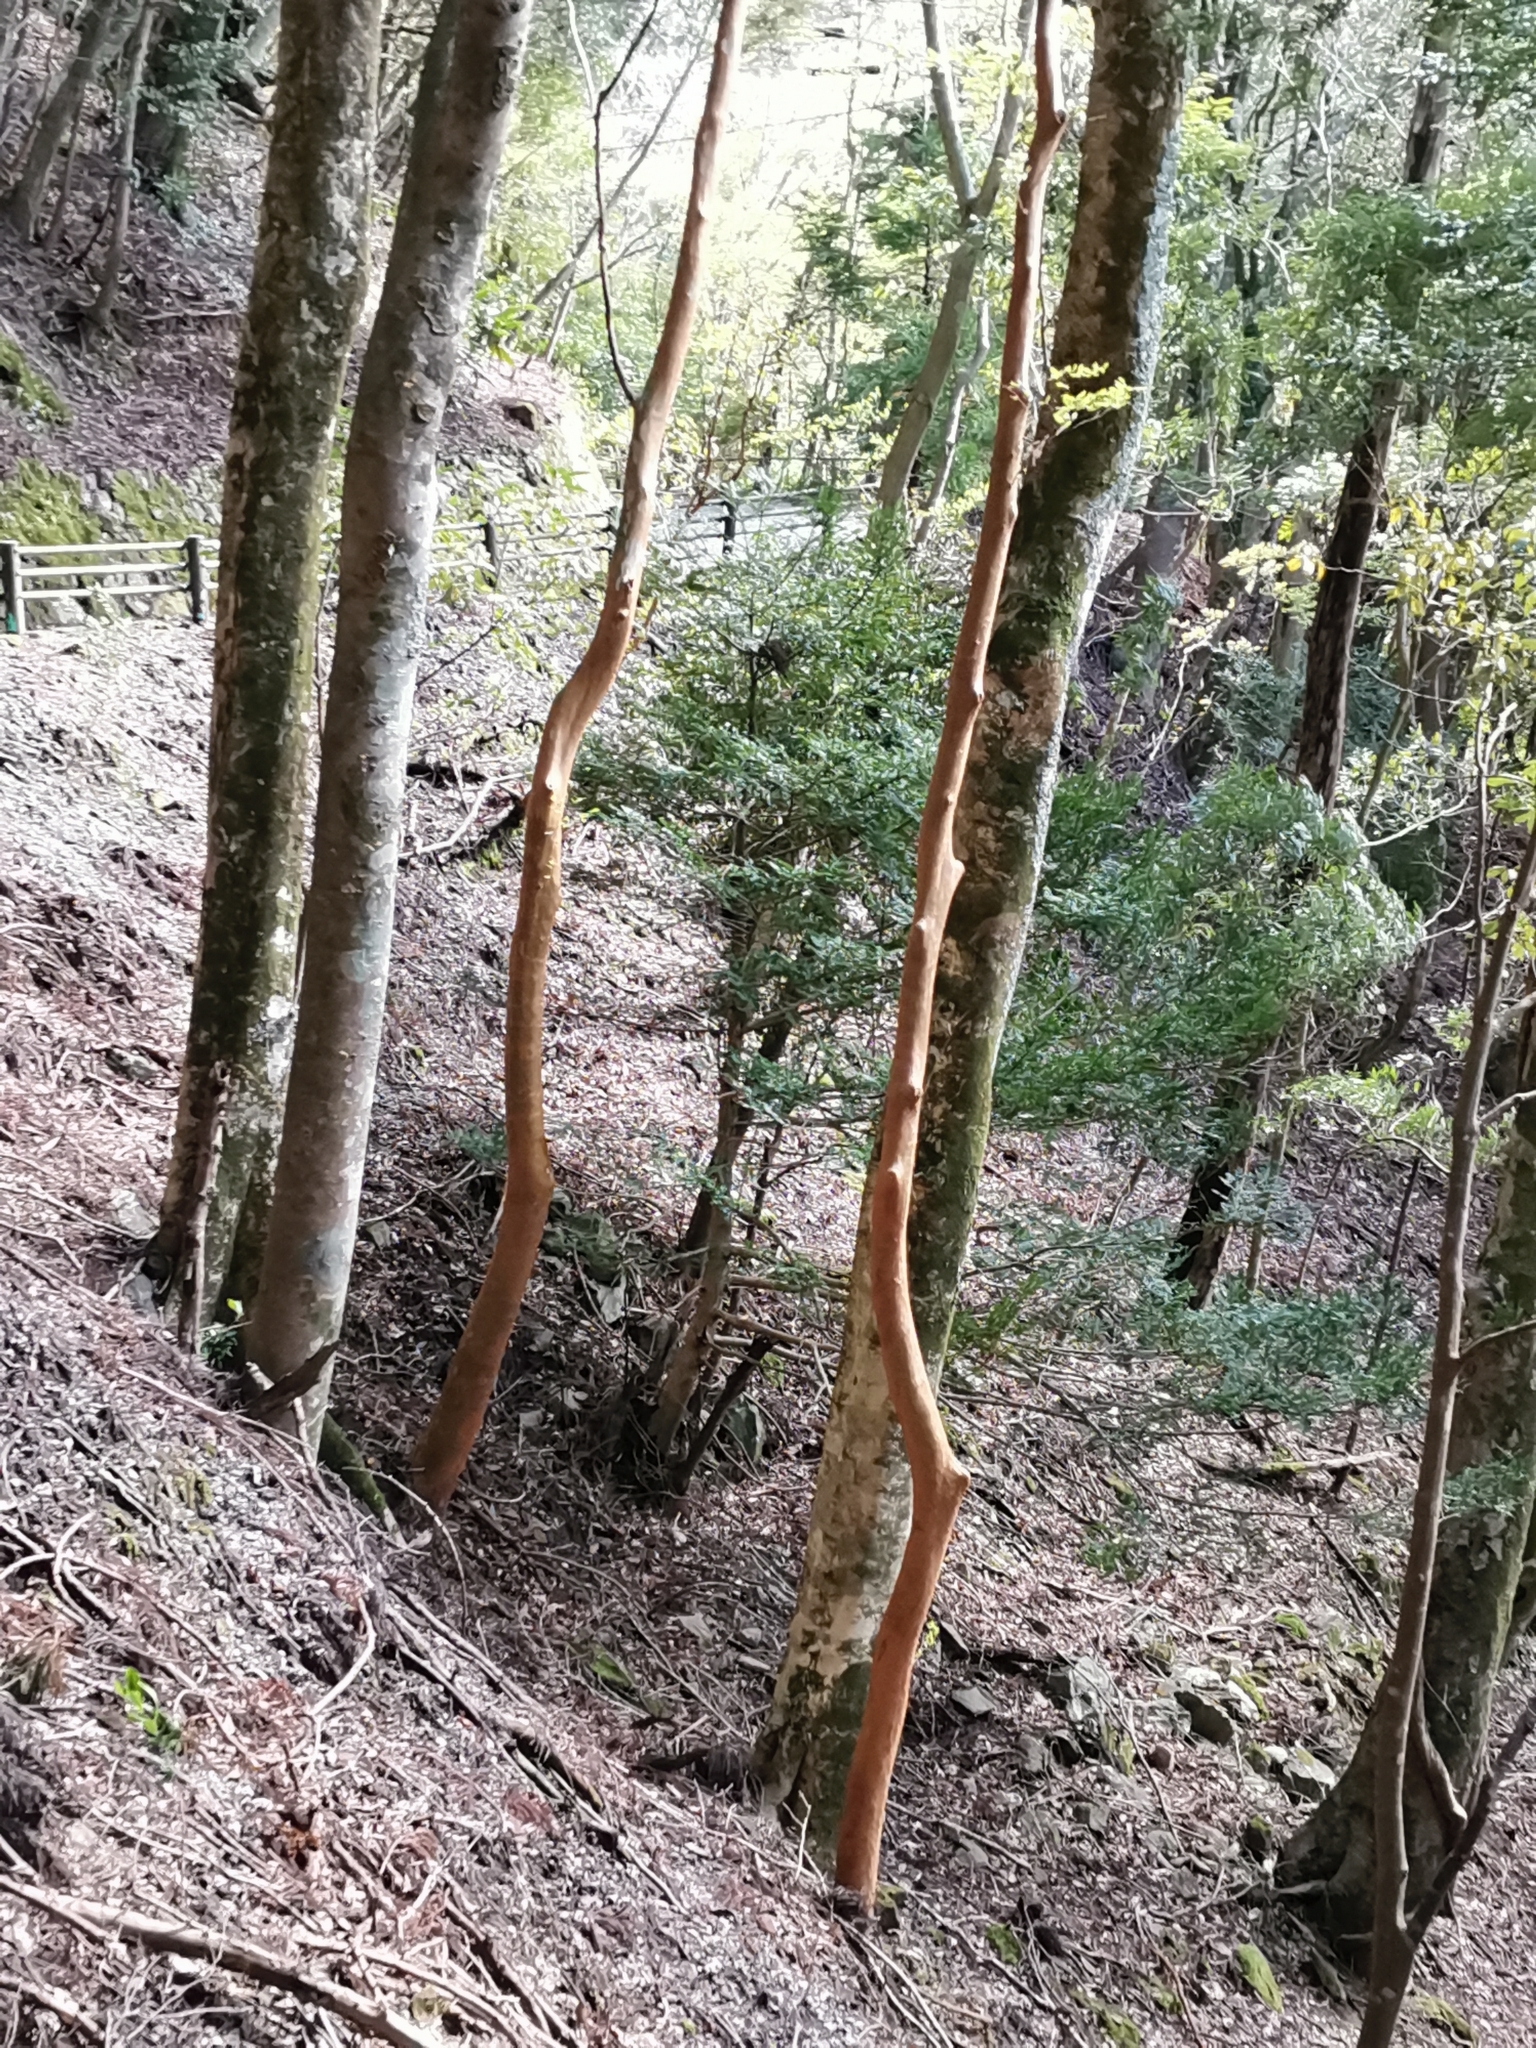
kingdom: Plantae
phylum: Tracheophyta
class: Magnoliopsida
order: Ericales
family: Theaceae
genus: Stewartia
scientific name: Stewartia monadelpha
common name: Tall stewartia
